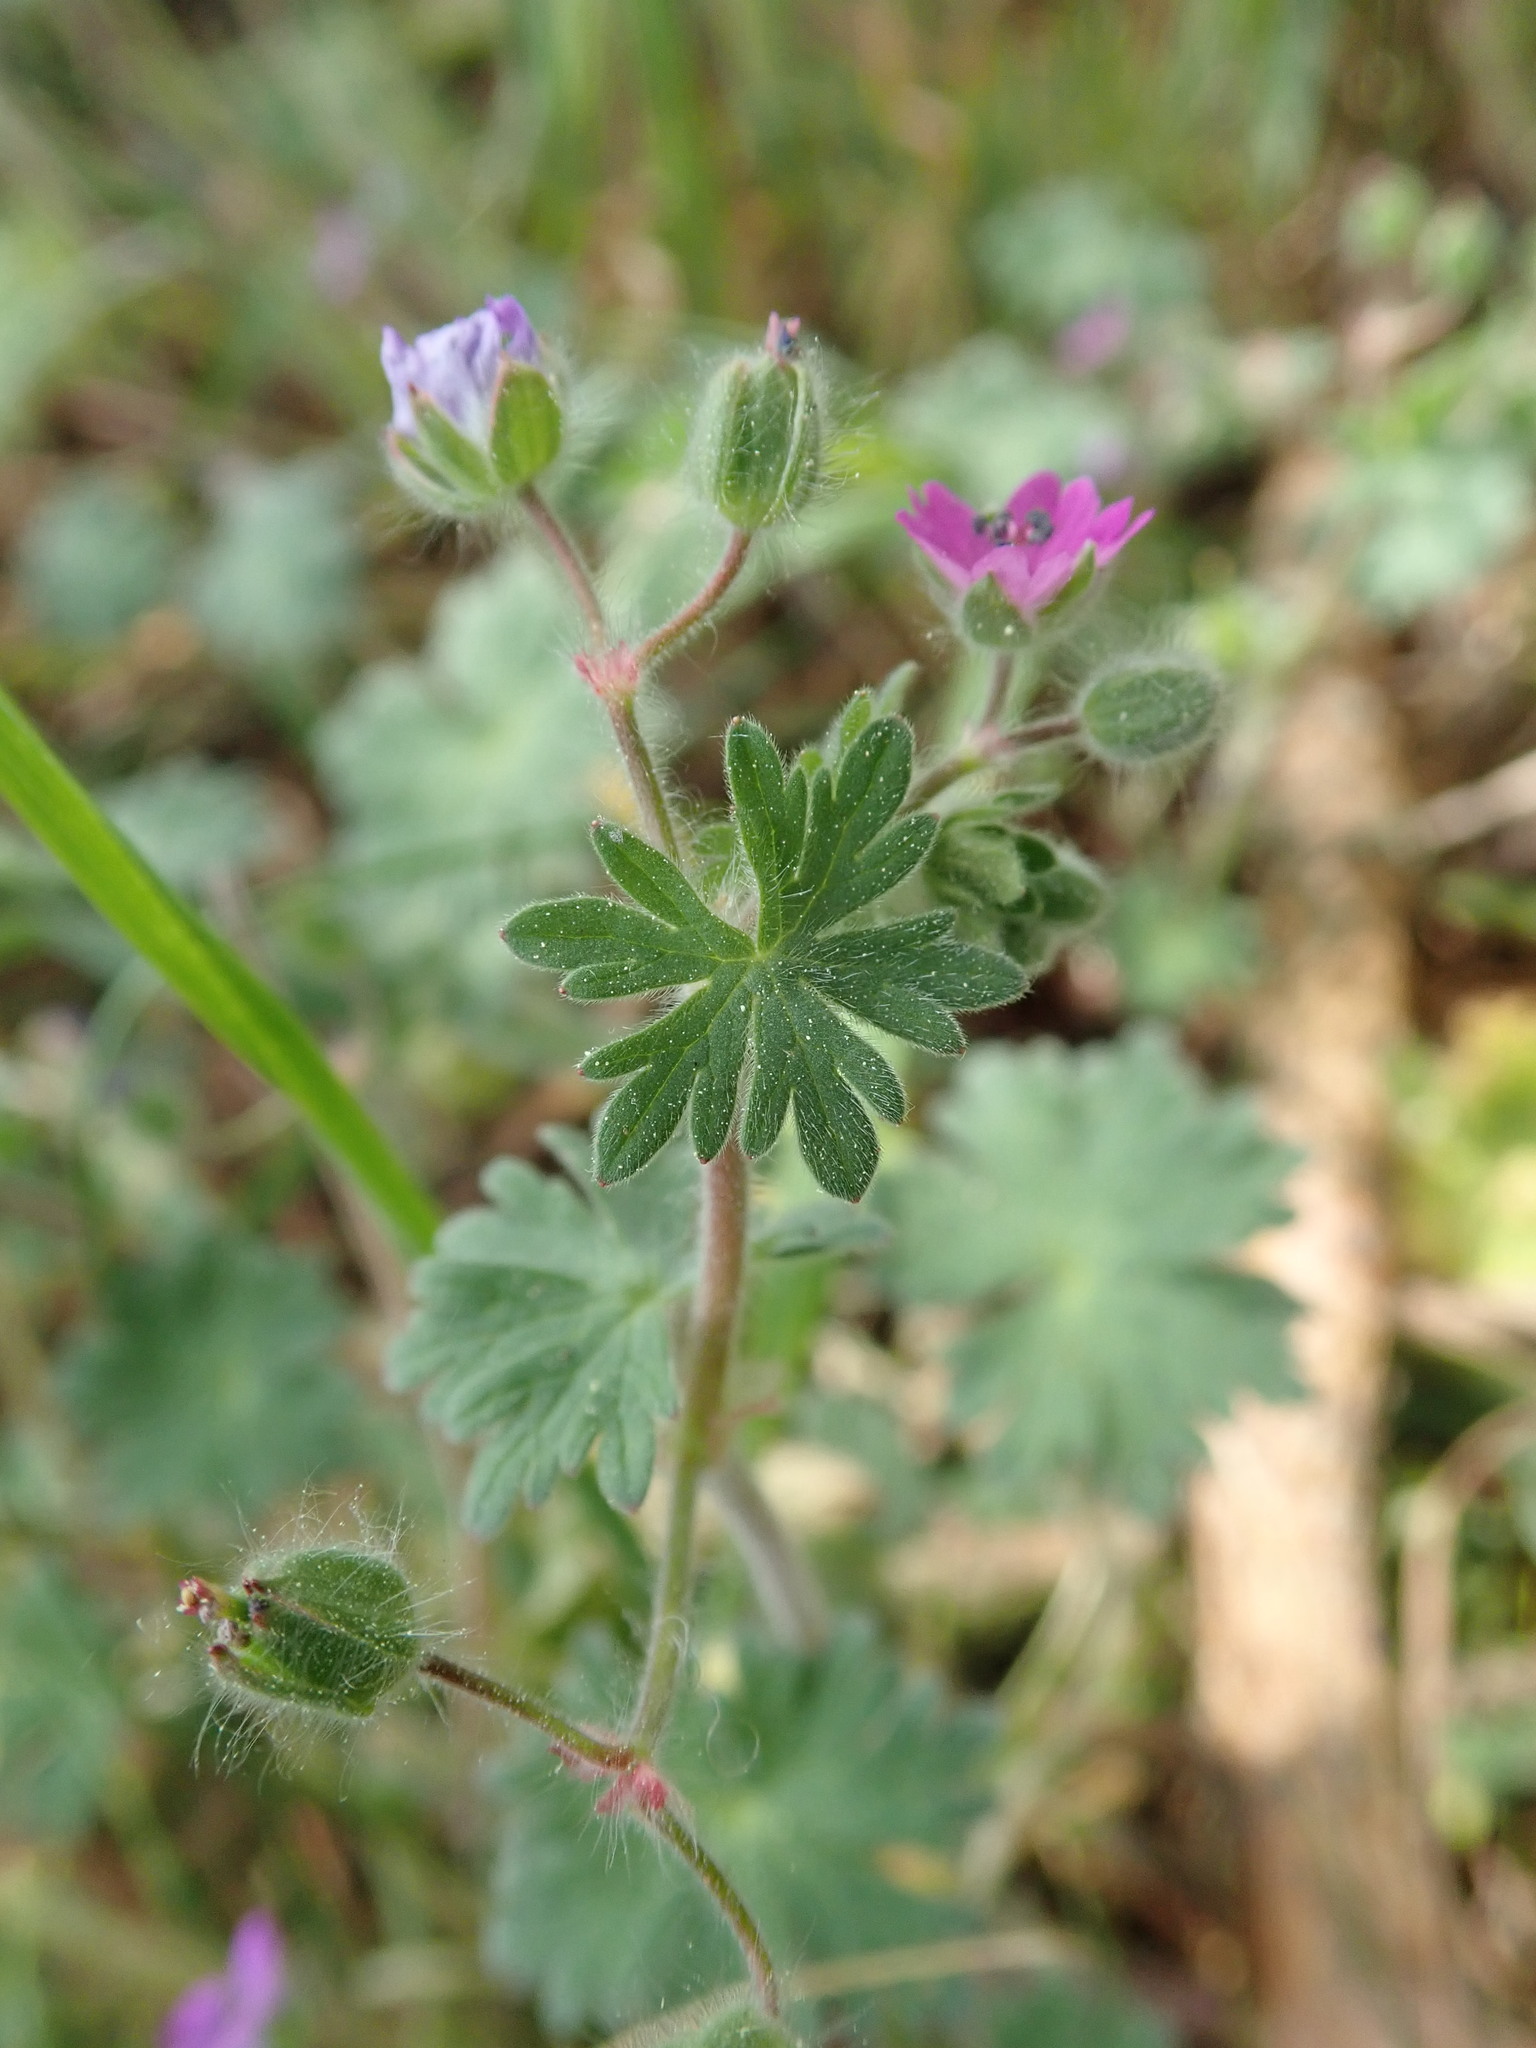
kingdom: Plantae
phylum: Tracheophyta
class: Magnoliopsida
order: Geraniales
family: Geraniaceae
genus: Geranium
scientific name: Geranium molle
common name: Dove's-foot crane's-bill
